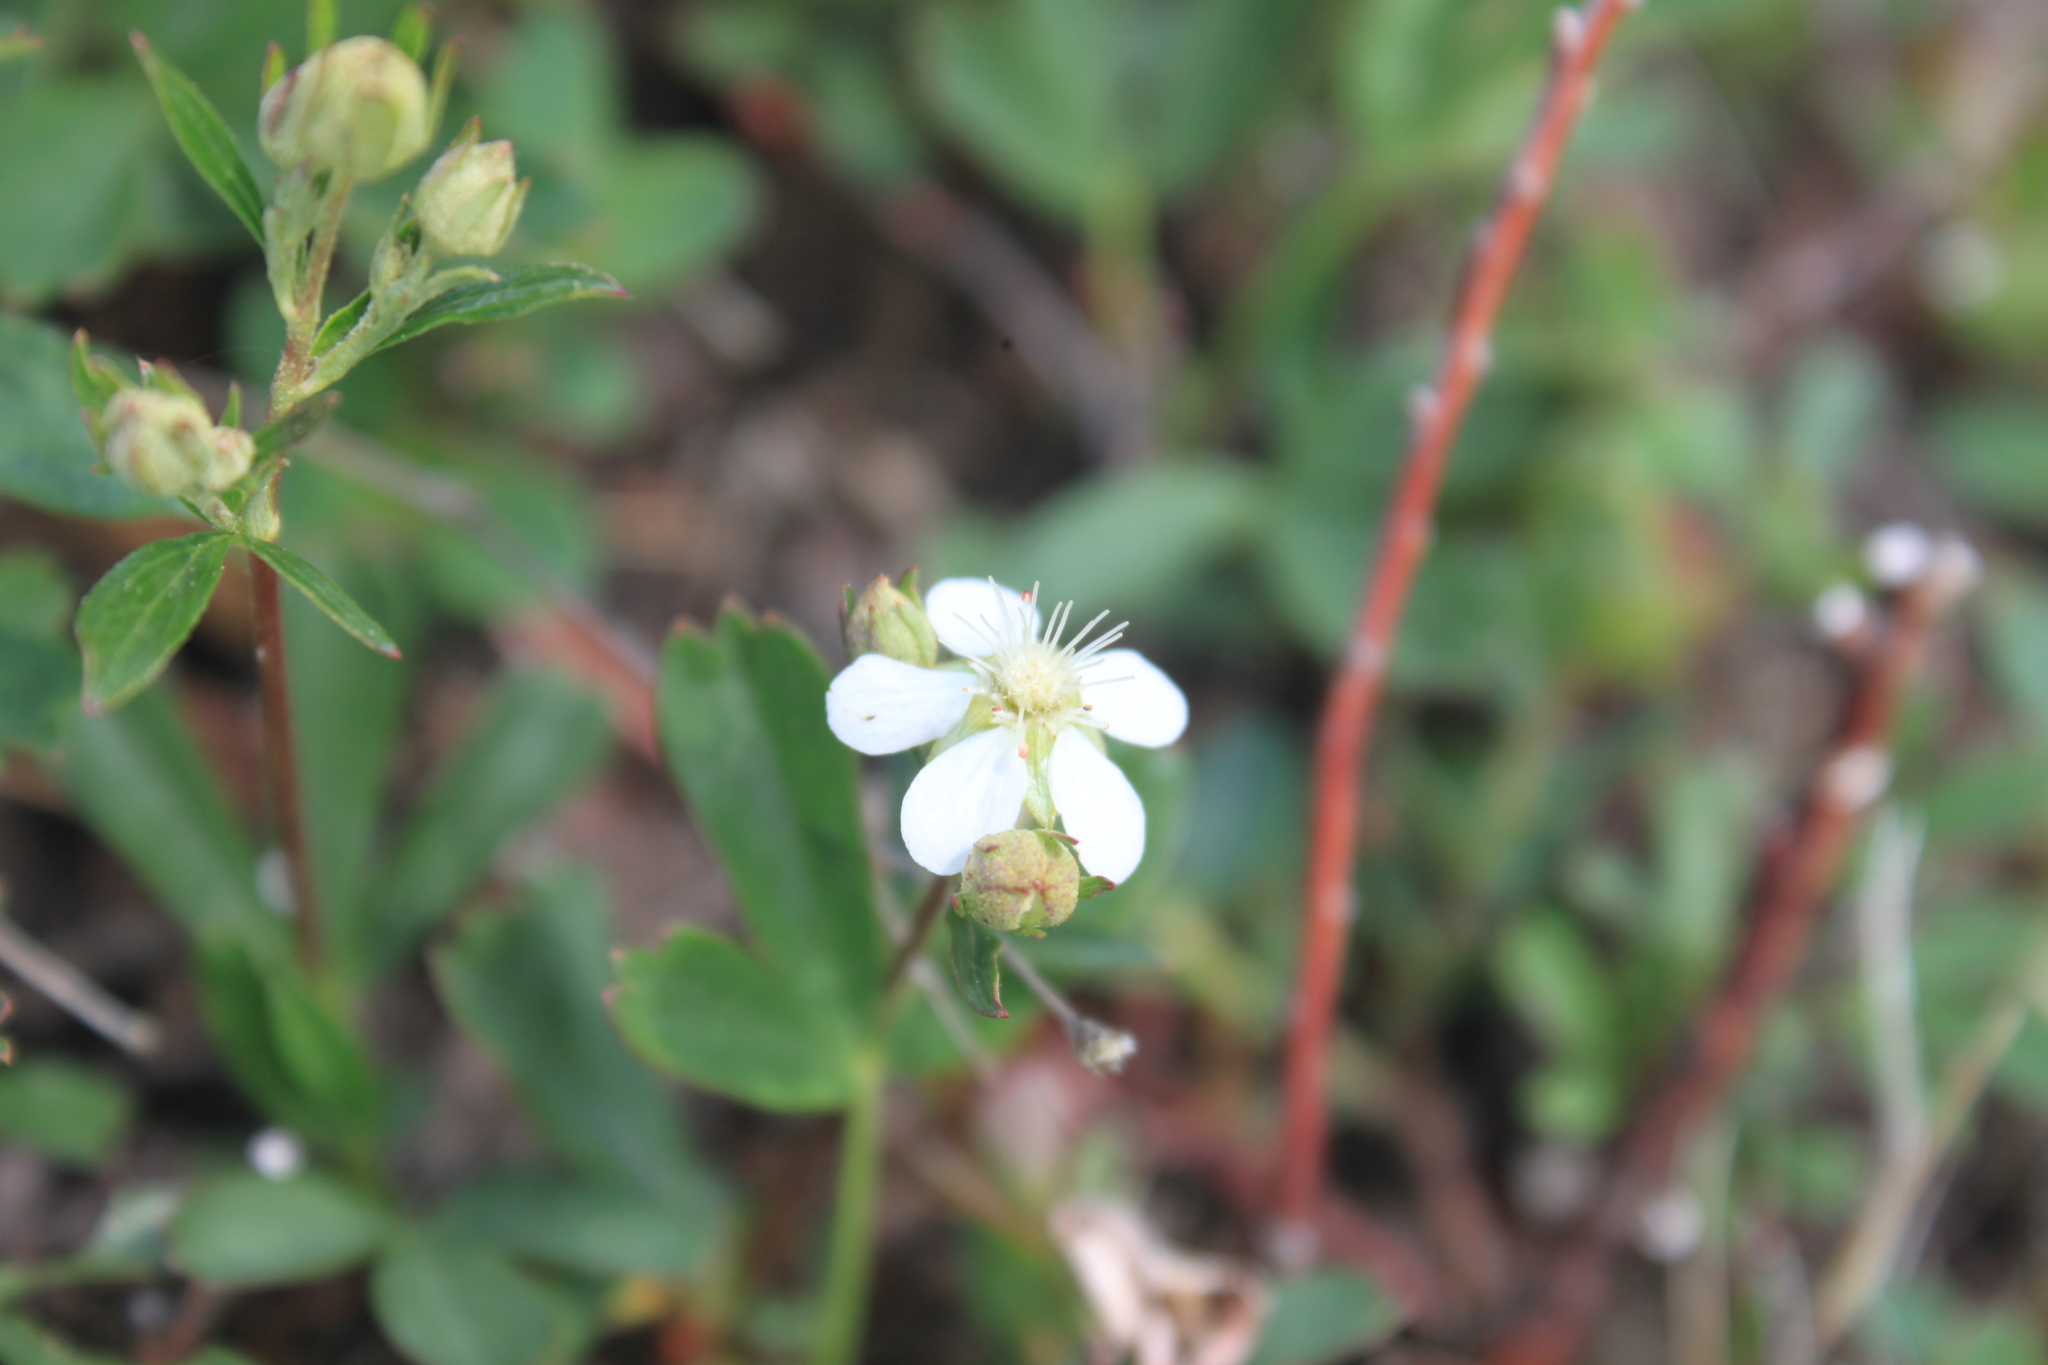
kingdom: Plantae
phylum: Tracheophyta
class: Magnoliopsida
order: Rosales
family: Rosaceae
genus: Sibbaldia
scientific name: Sibbaldia tridentata
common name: Three-toothed cinquefoil
